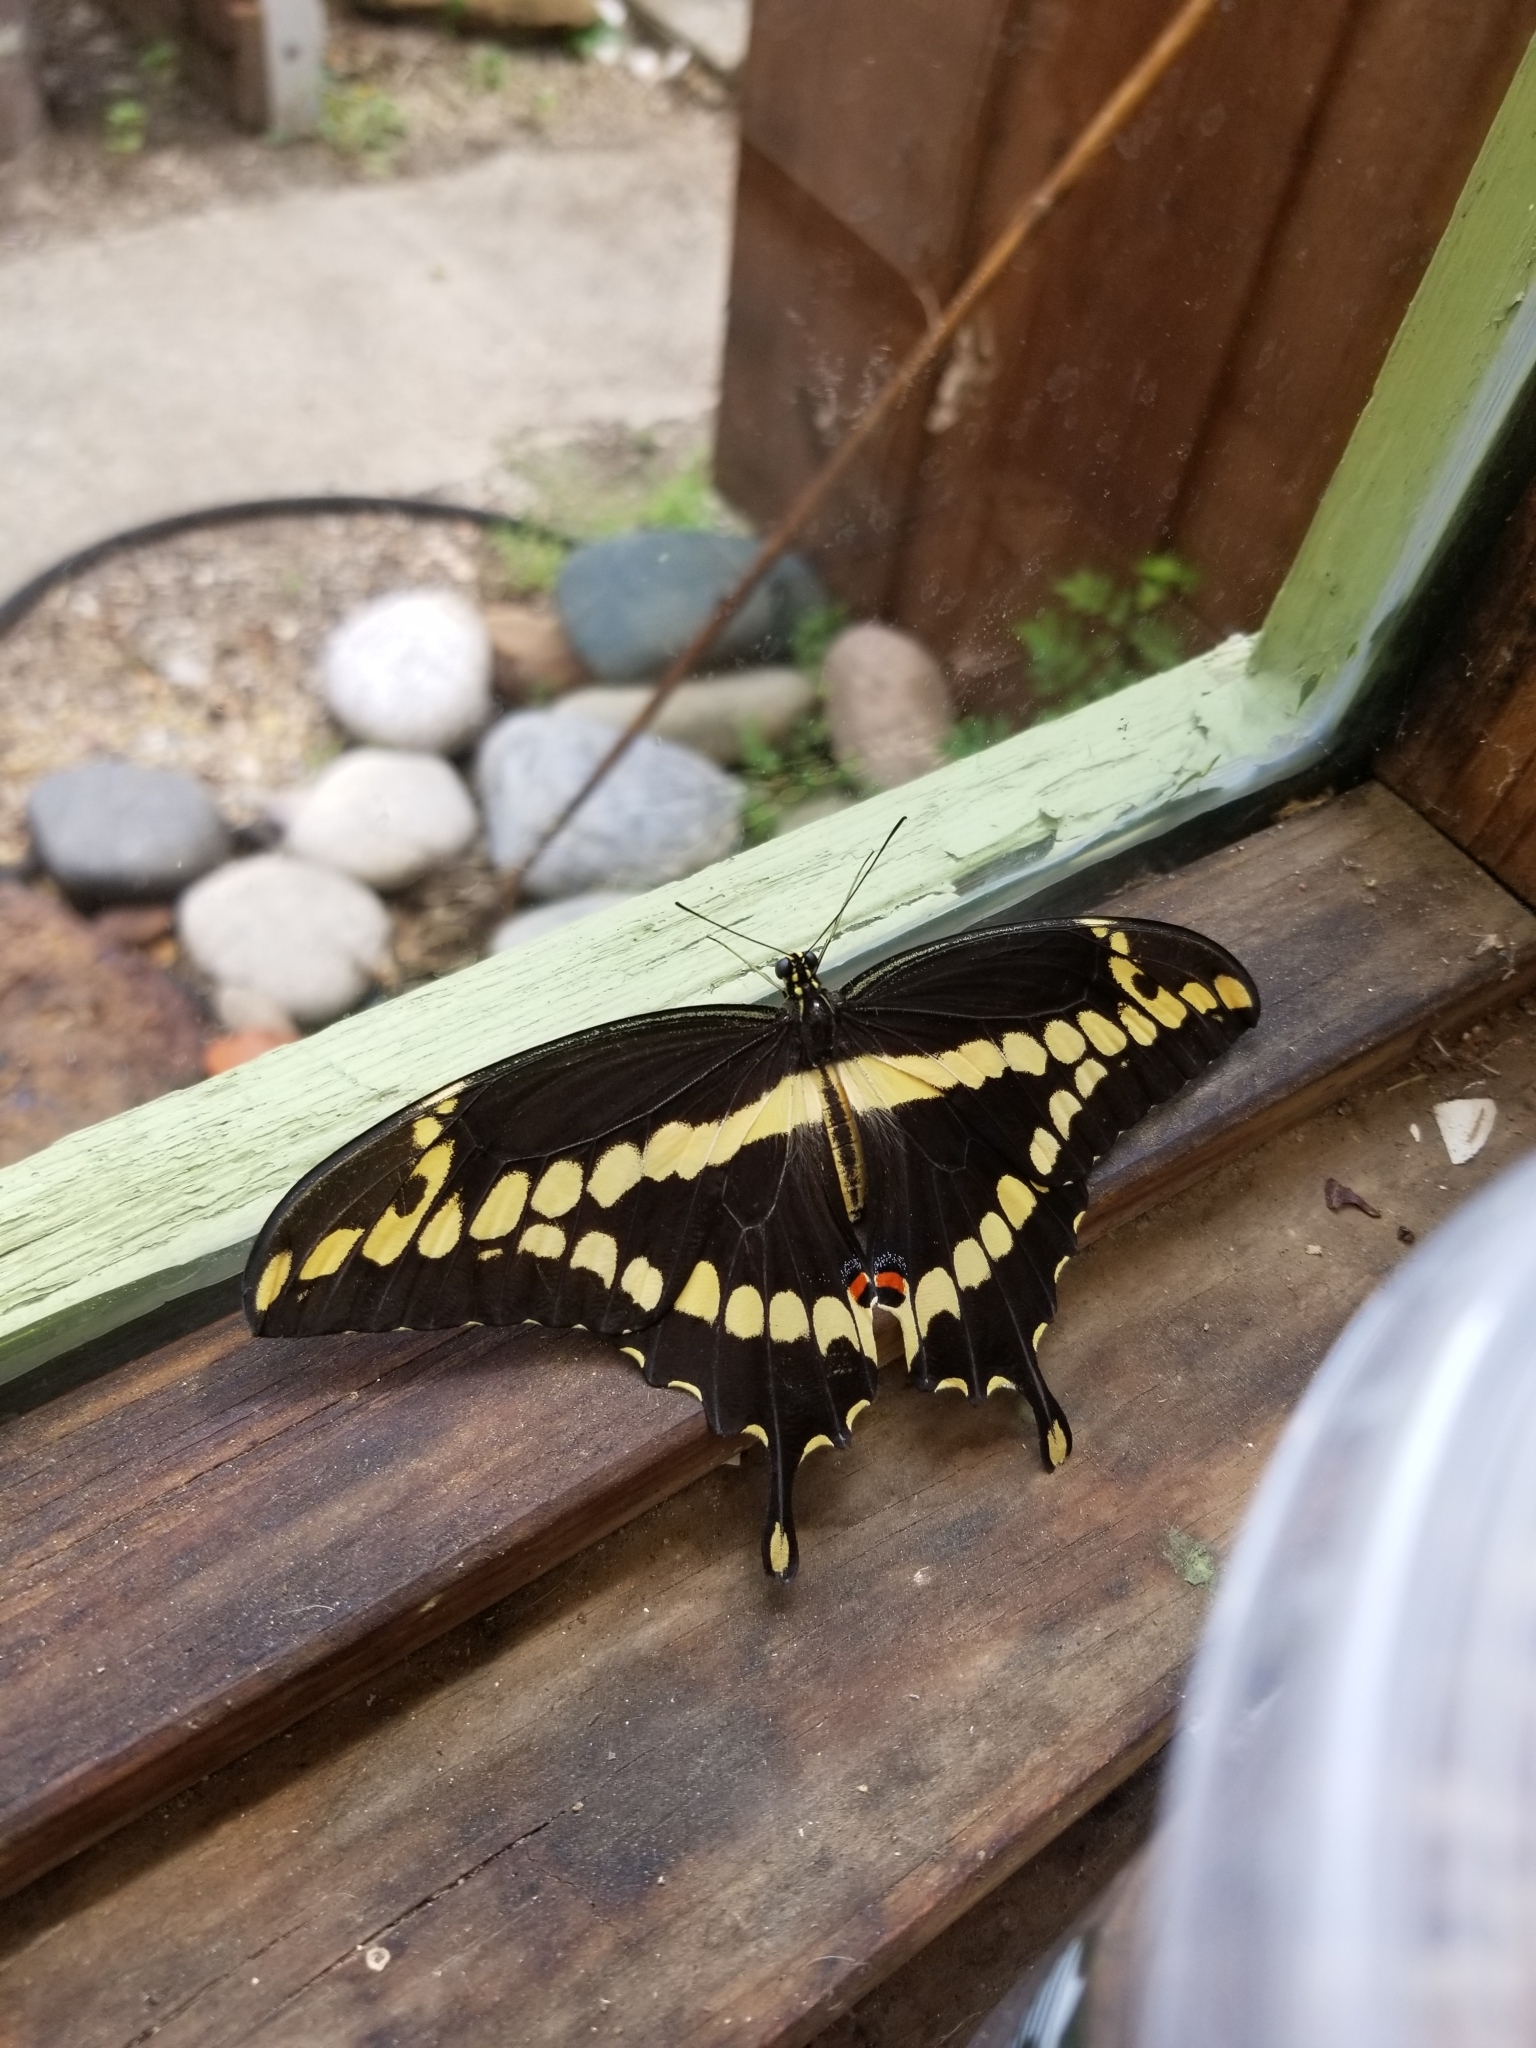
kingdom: Animalia
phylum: Arthropoda
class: Insecta
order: Lepidoptera
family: Papilionidae
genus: Papilio
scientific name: Papilio cresphontes
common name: Giant swallowtail
